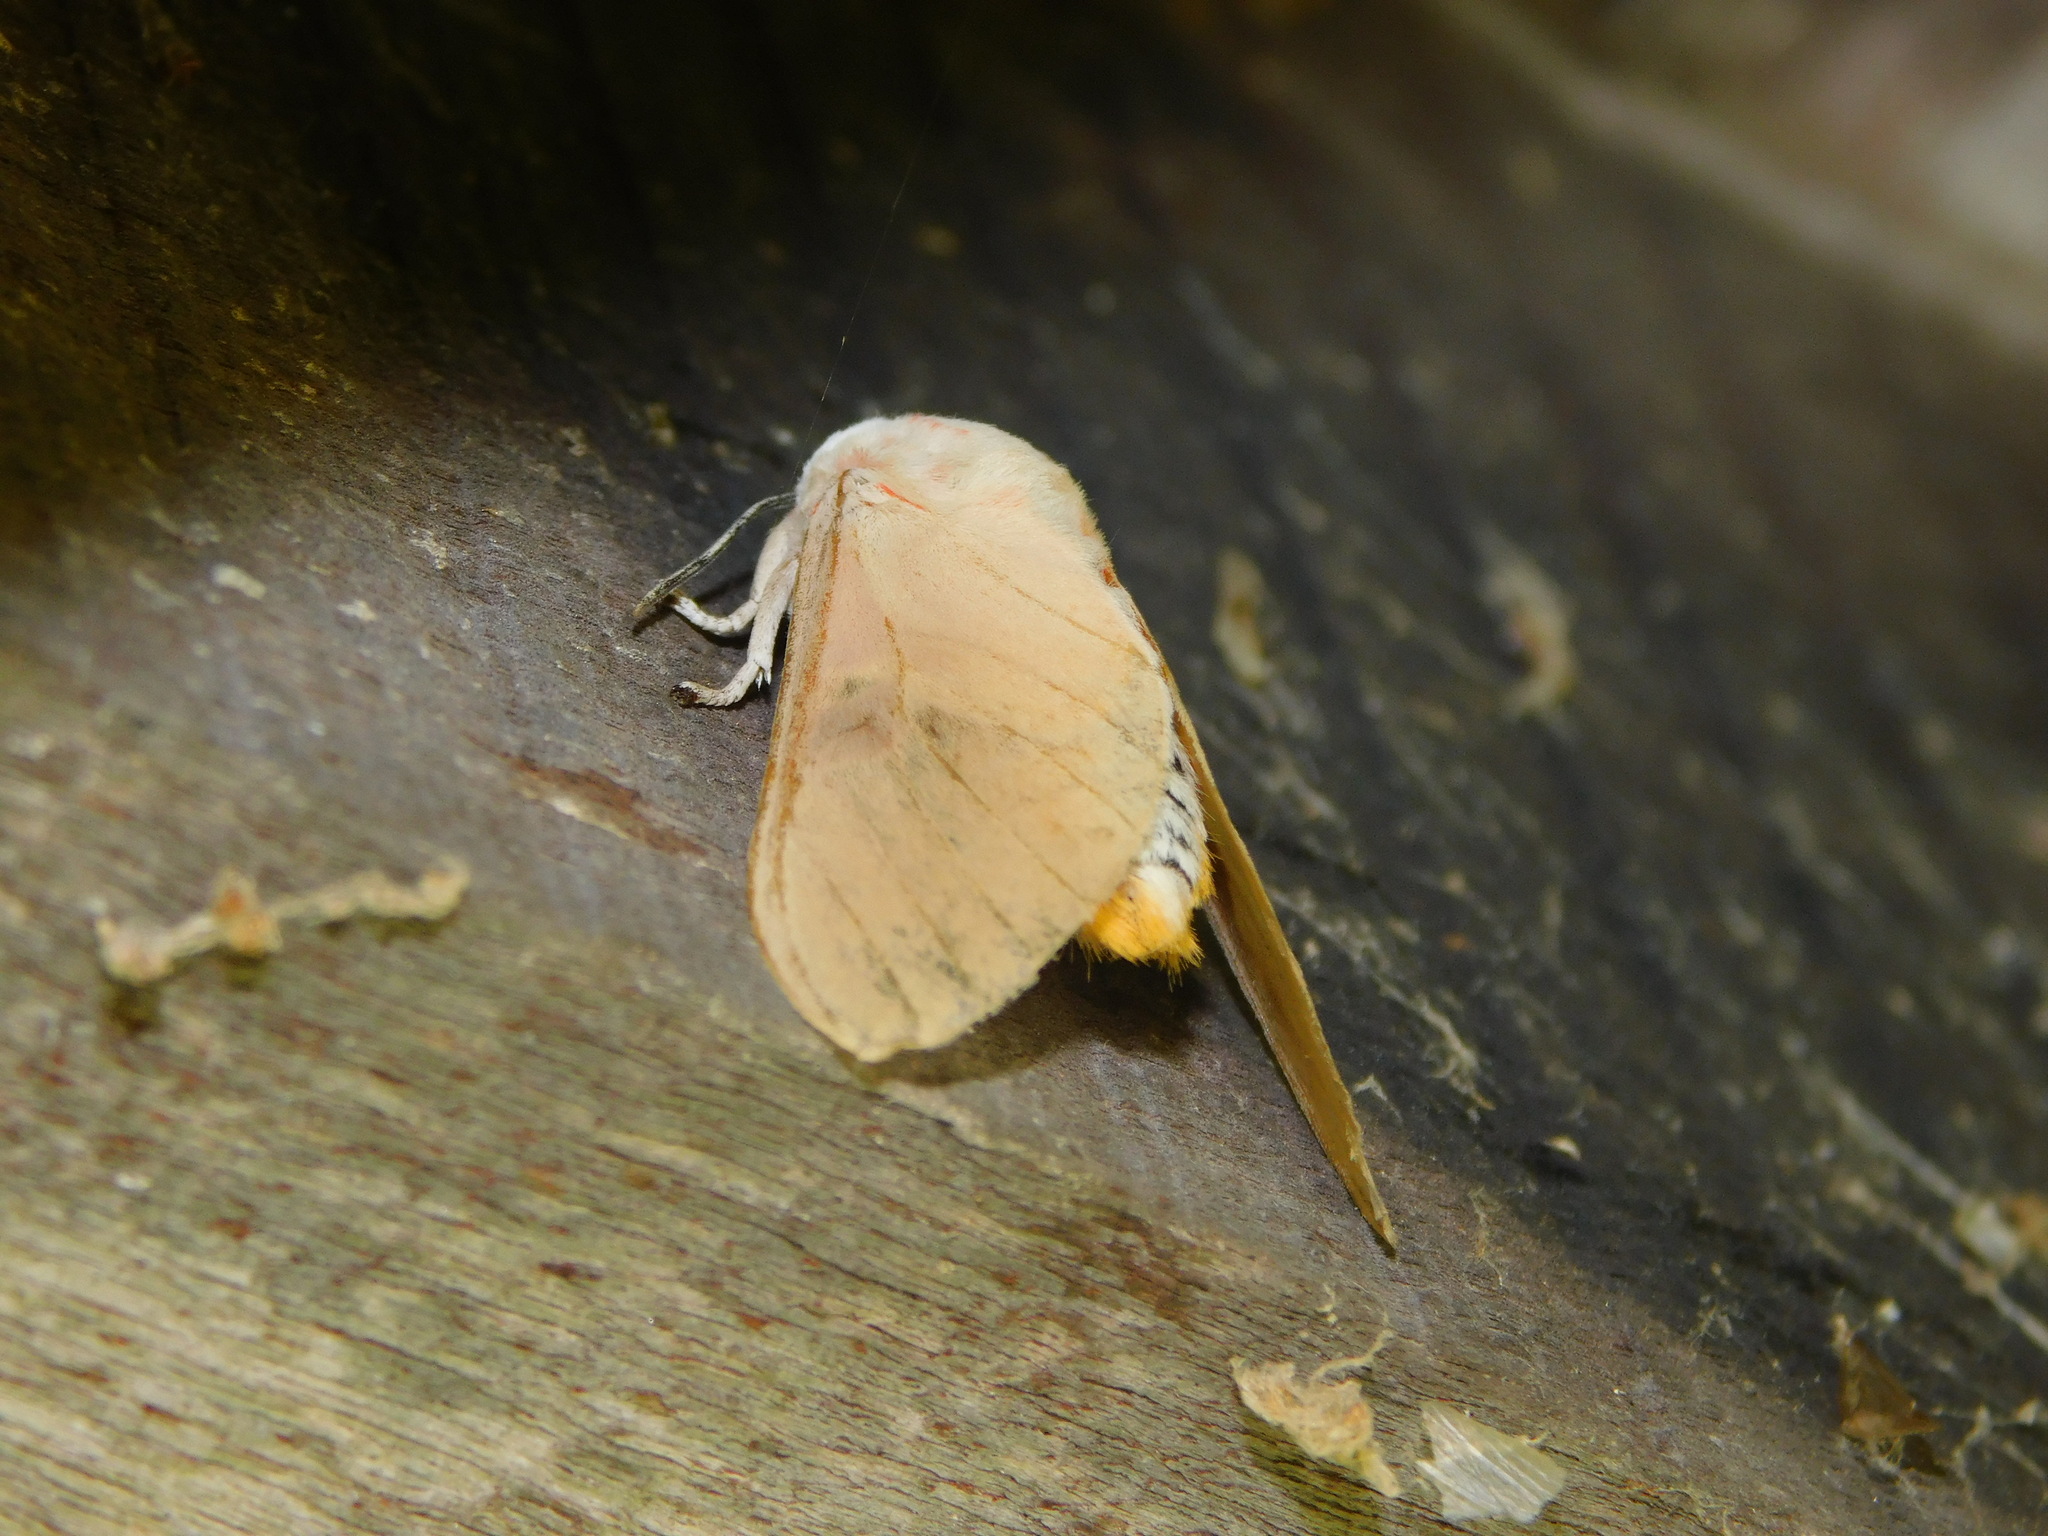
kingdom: Animalia
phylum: Arthropoda
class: Insecta
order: Lepidoptera
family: Erebidae
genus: Balacra
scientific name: Balacra herona
